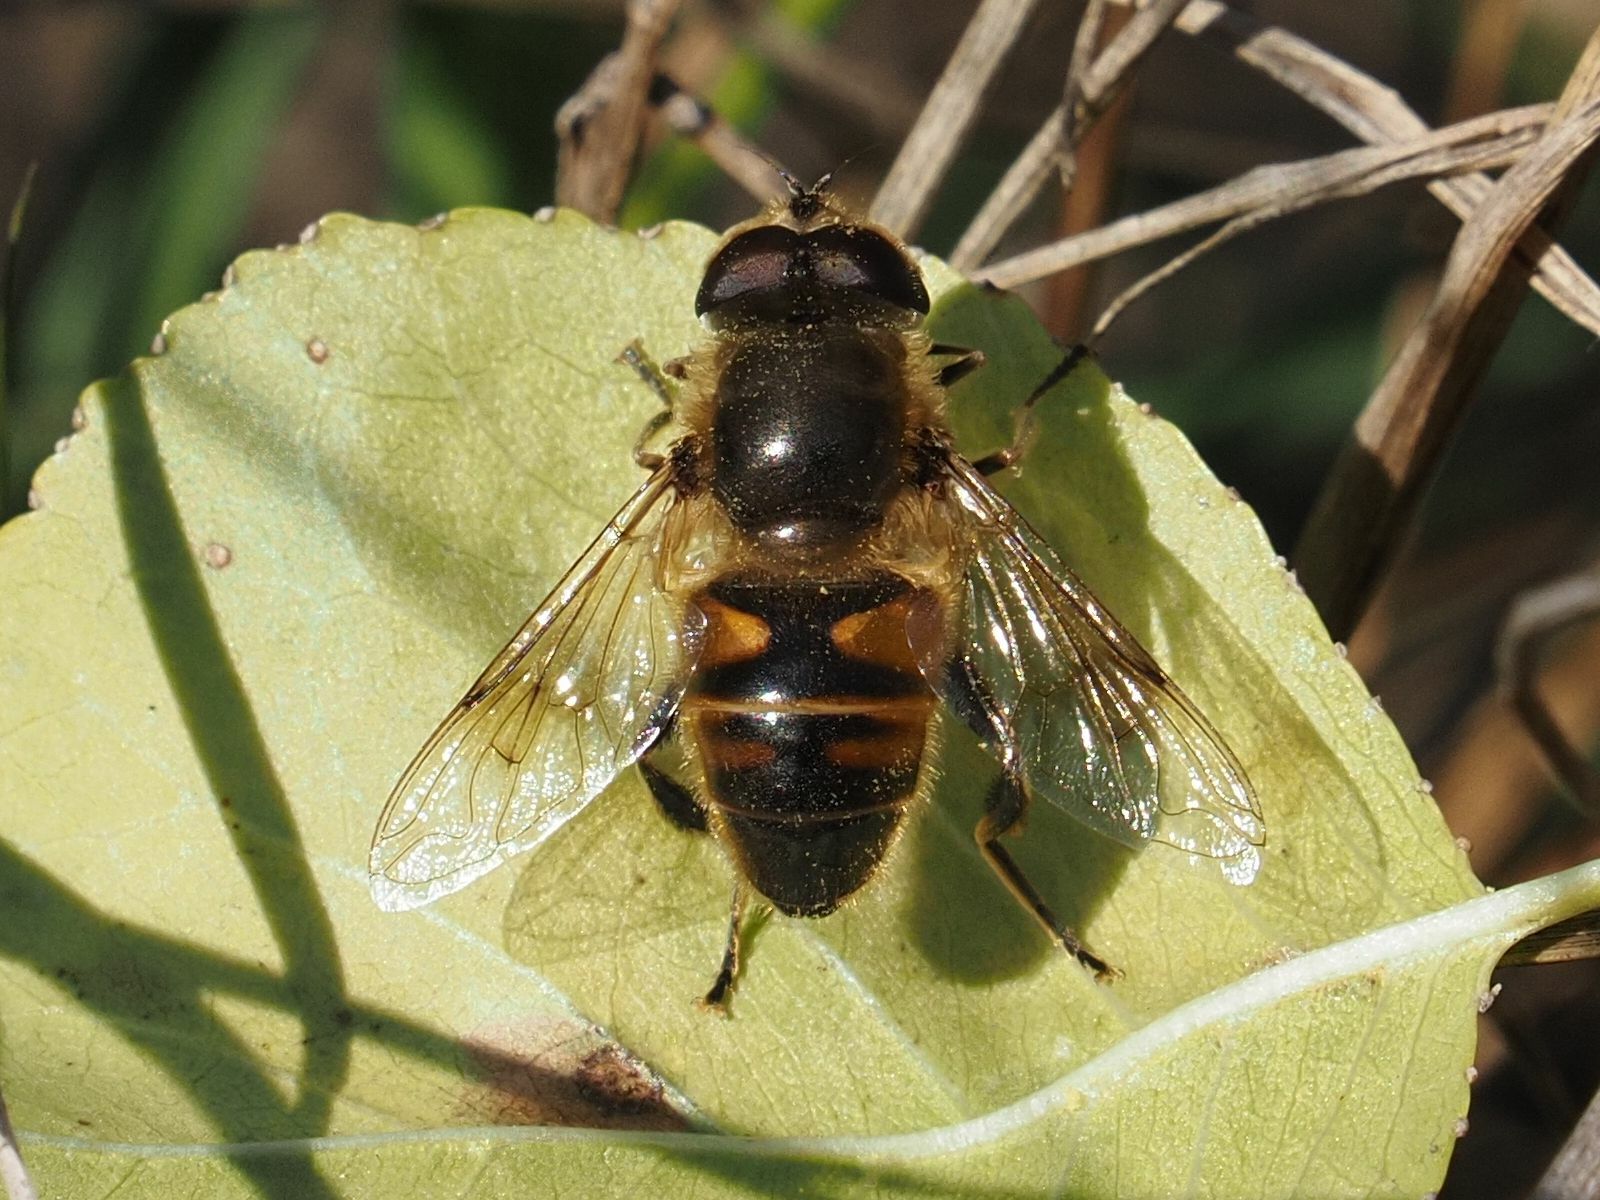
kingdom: Animalia
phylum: Arthropoda
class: Insecta
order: Diptera
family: Syrphidae
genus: Eristalis
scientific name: Eristalis tenax
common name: Drone fly
